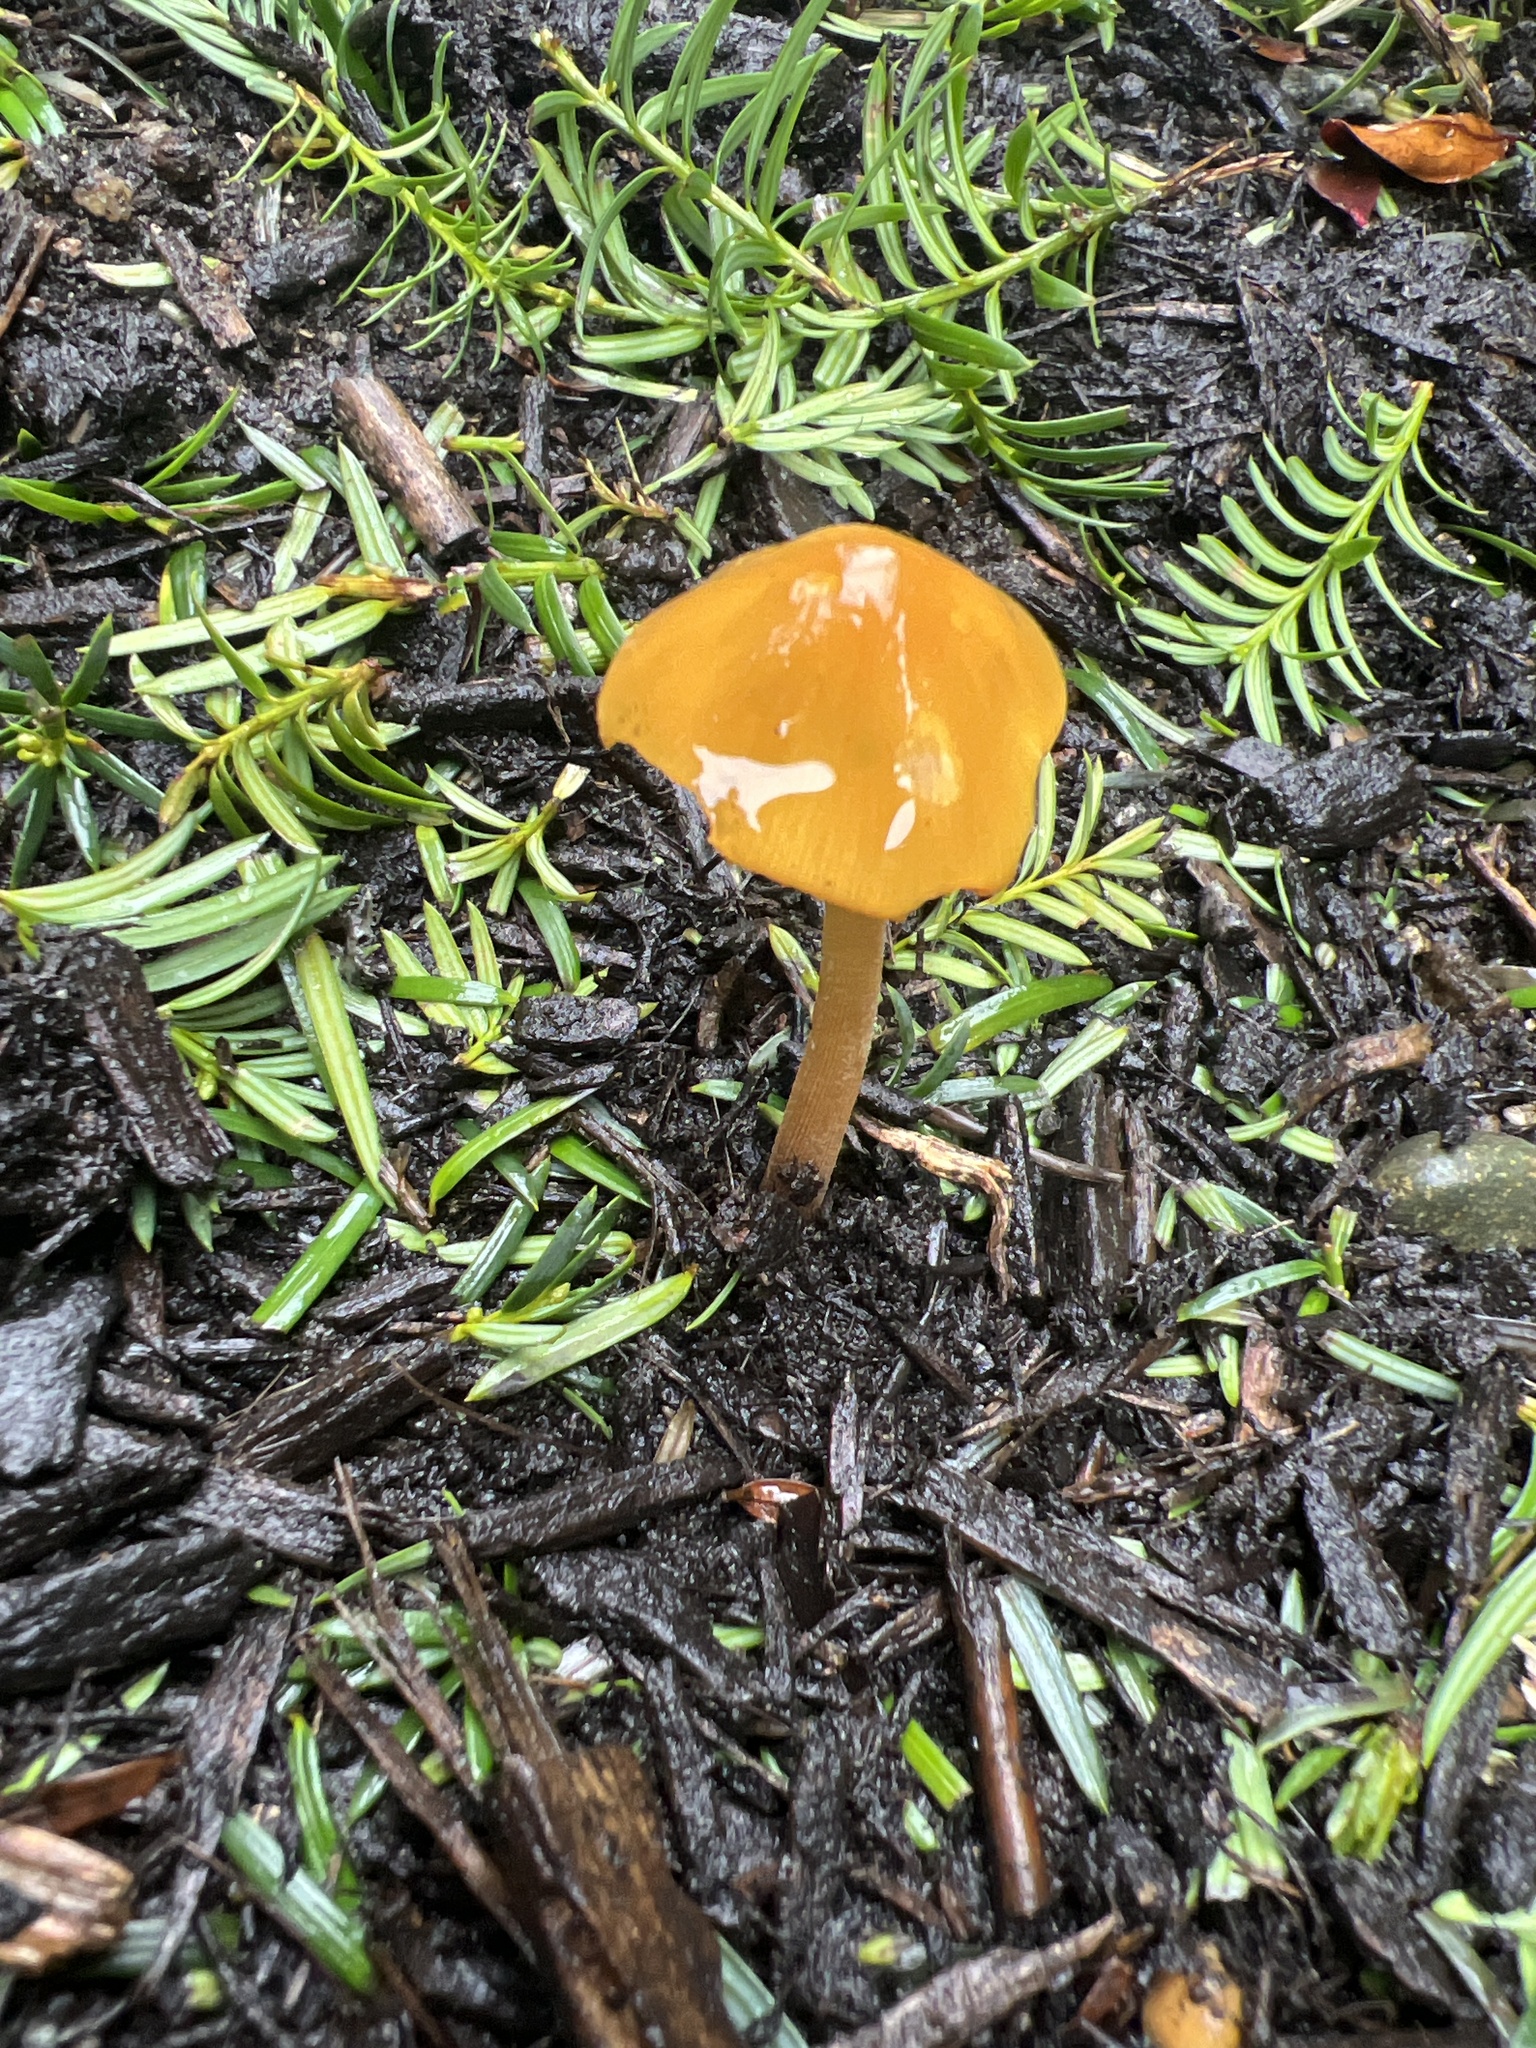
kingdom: Fungi
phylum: Basidiomycota
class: Agaricomycetes
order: Agaricales
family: Bolbitiaceae
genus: Conocybe
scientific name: Conocybe aurea
